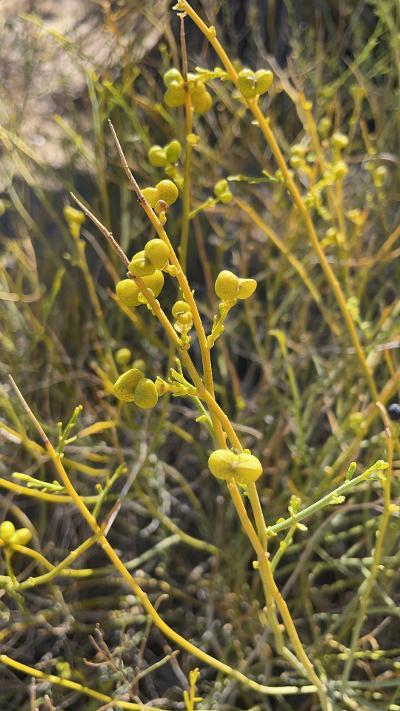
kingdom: Plantae
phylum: Tracheophyta
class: Magnoliopsida
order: Sapindales
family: Rutaceae
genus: Thamnosma
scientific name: Thamnosma montana
